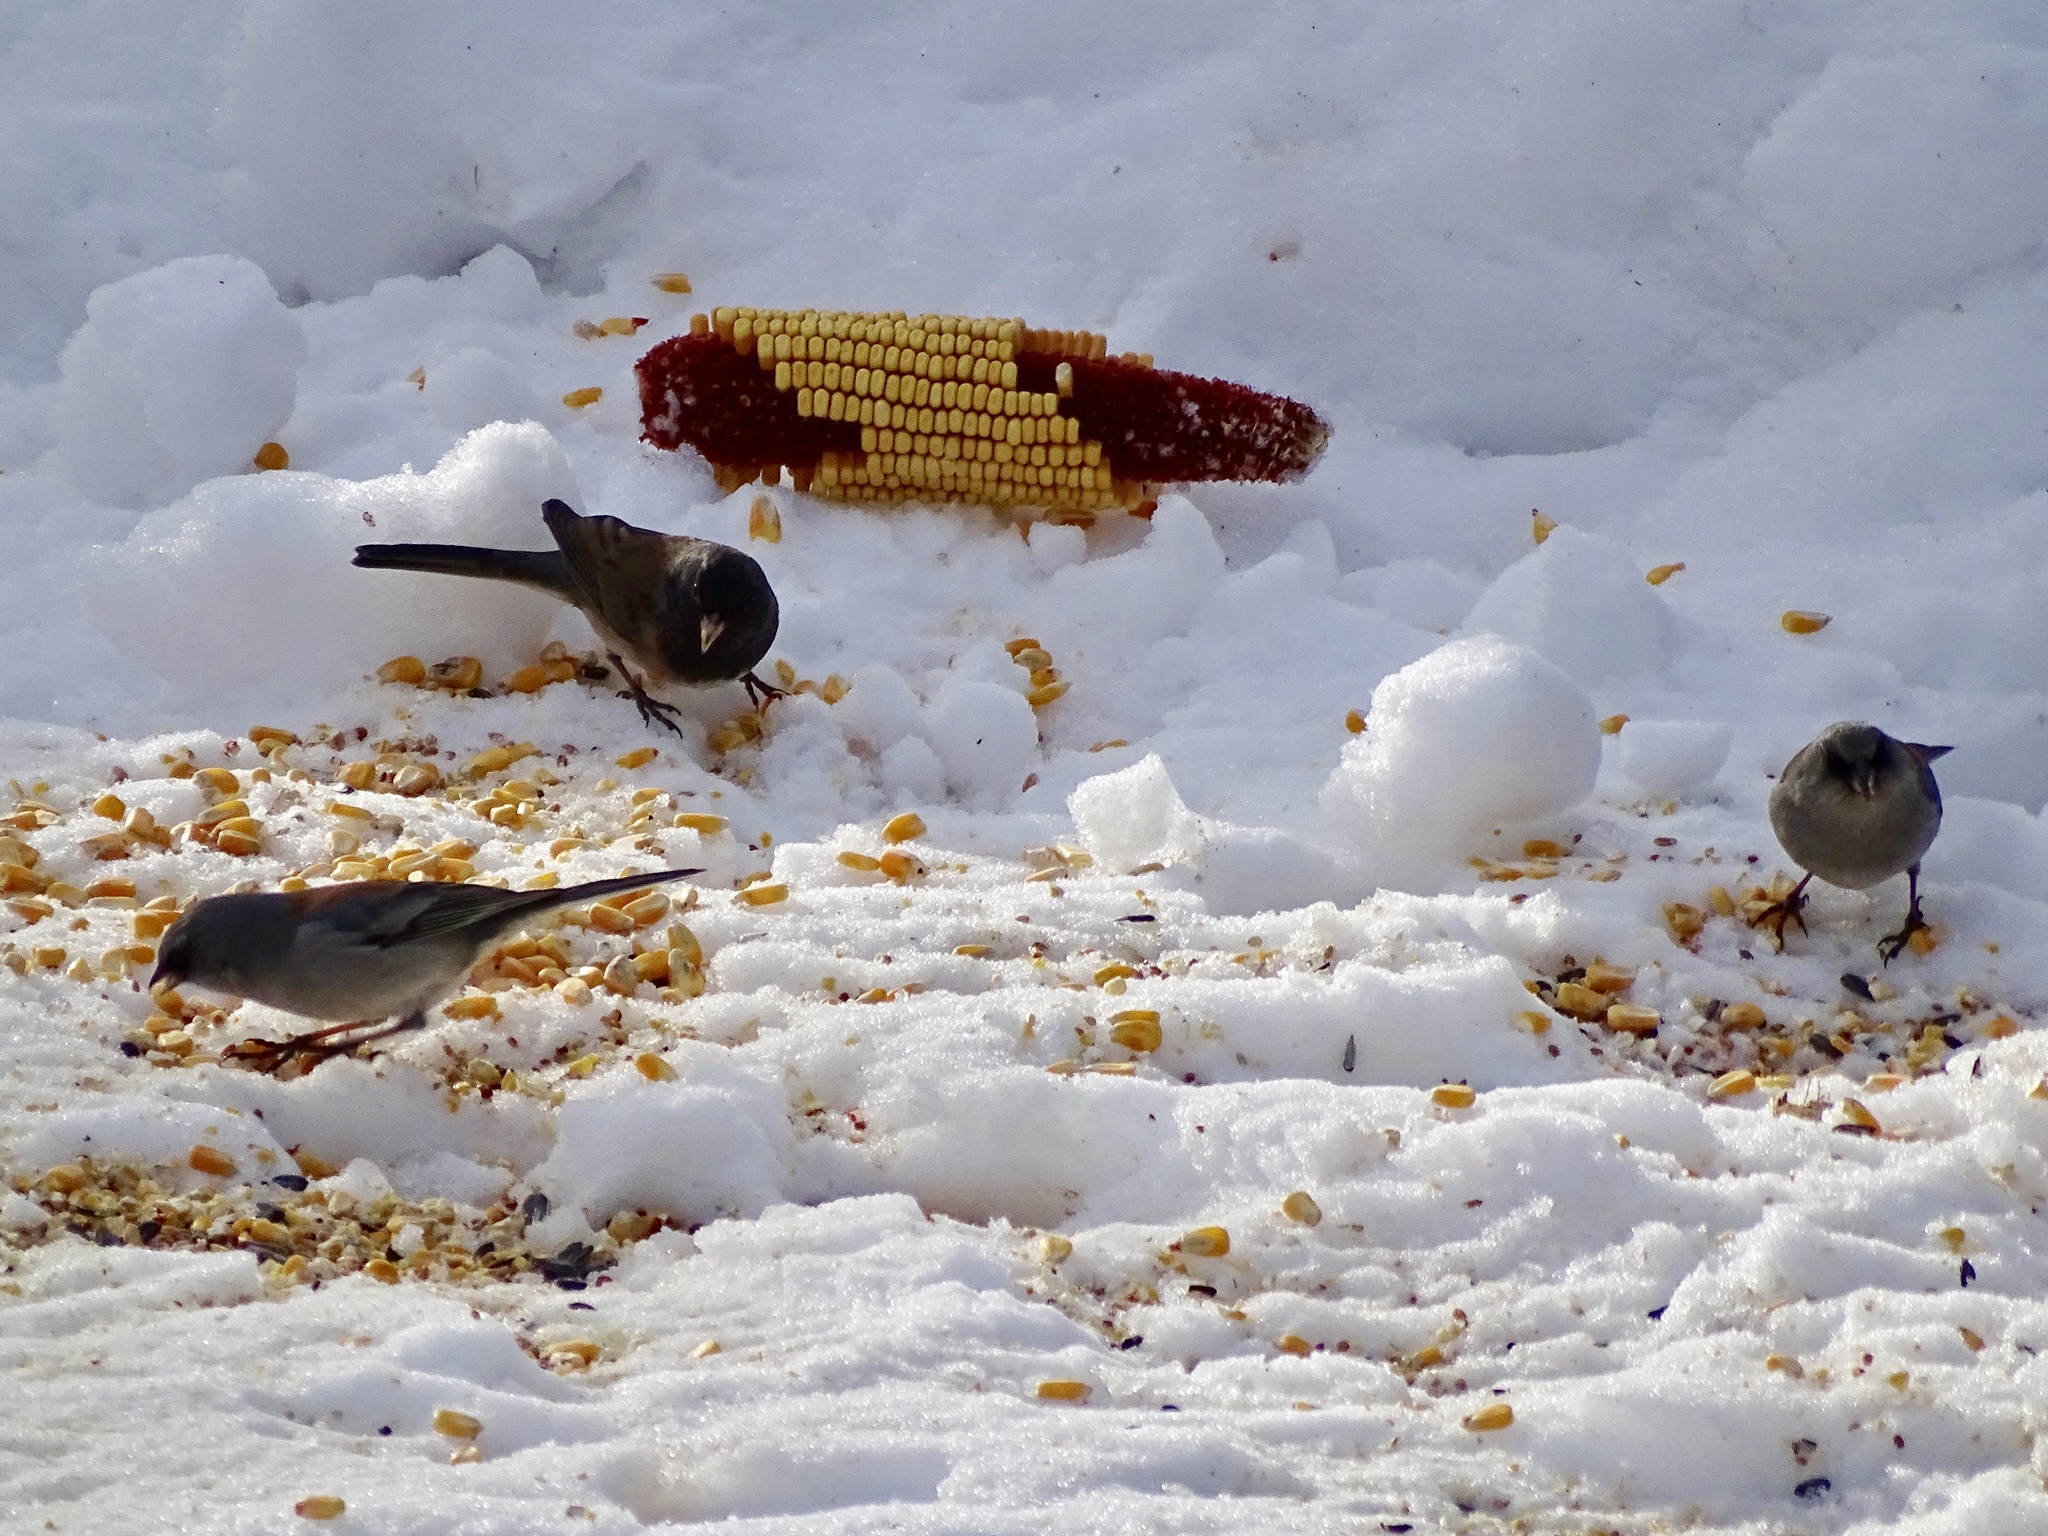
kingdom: Animalia
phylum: Chordata
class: Aves
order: Passeriformes
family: Passerellidae
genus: Junco
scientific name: Junco hyemalis
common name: Dark-eyed junco
